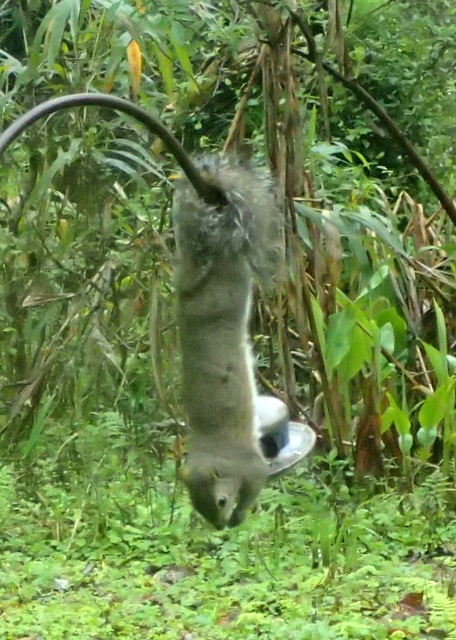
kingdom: Animalia
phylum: Chordata
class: Mammalia
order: Rodentia
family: Sciuridae
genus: Sciurus
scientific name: Sciurus carolinensis
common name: Eastern gray squirrel
